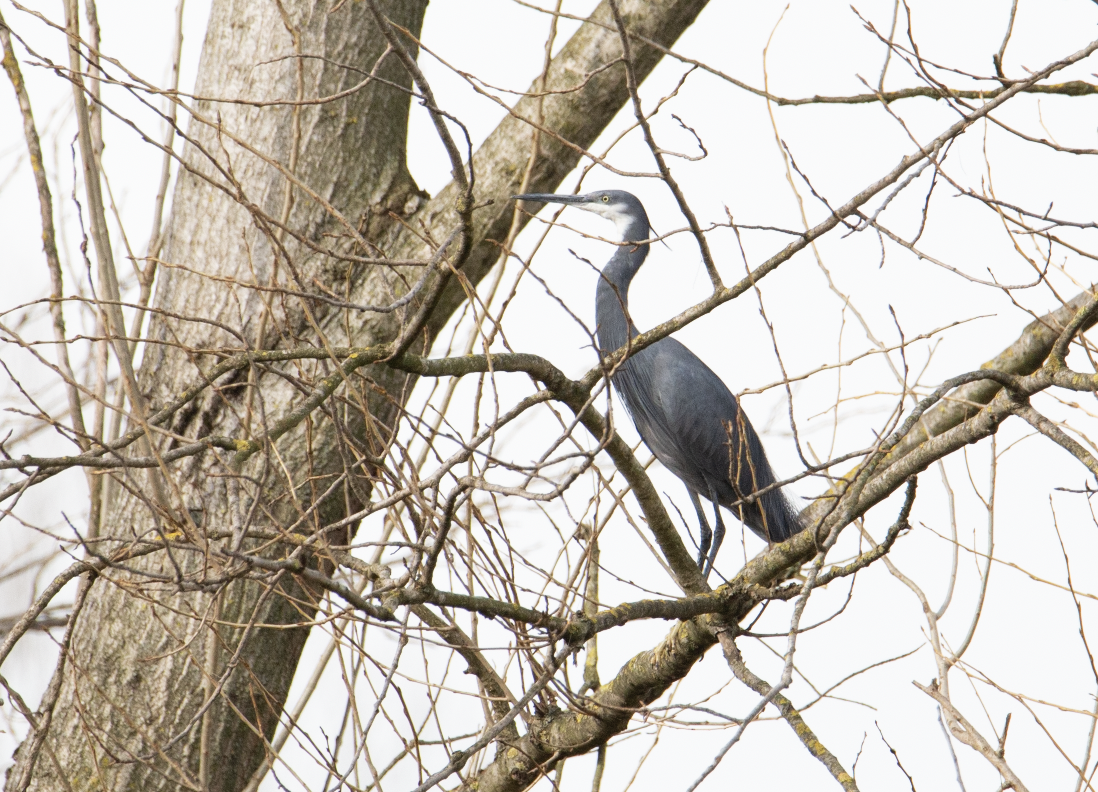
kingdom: Animalia
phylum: Chordata
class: Aves
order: Pelecaniformes
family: Ardeidae
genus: Egretta
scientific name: Egretta gularis
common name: Western reef-heron
